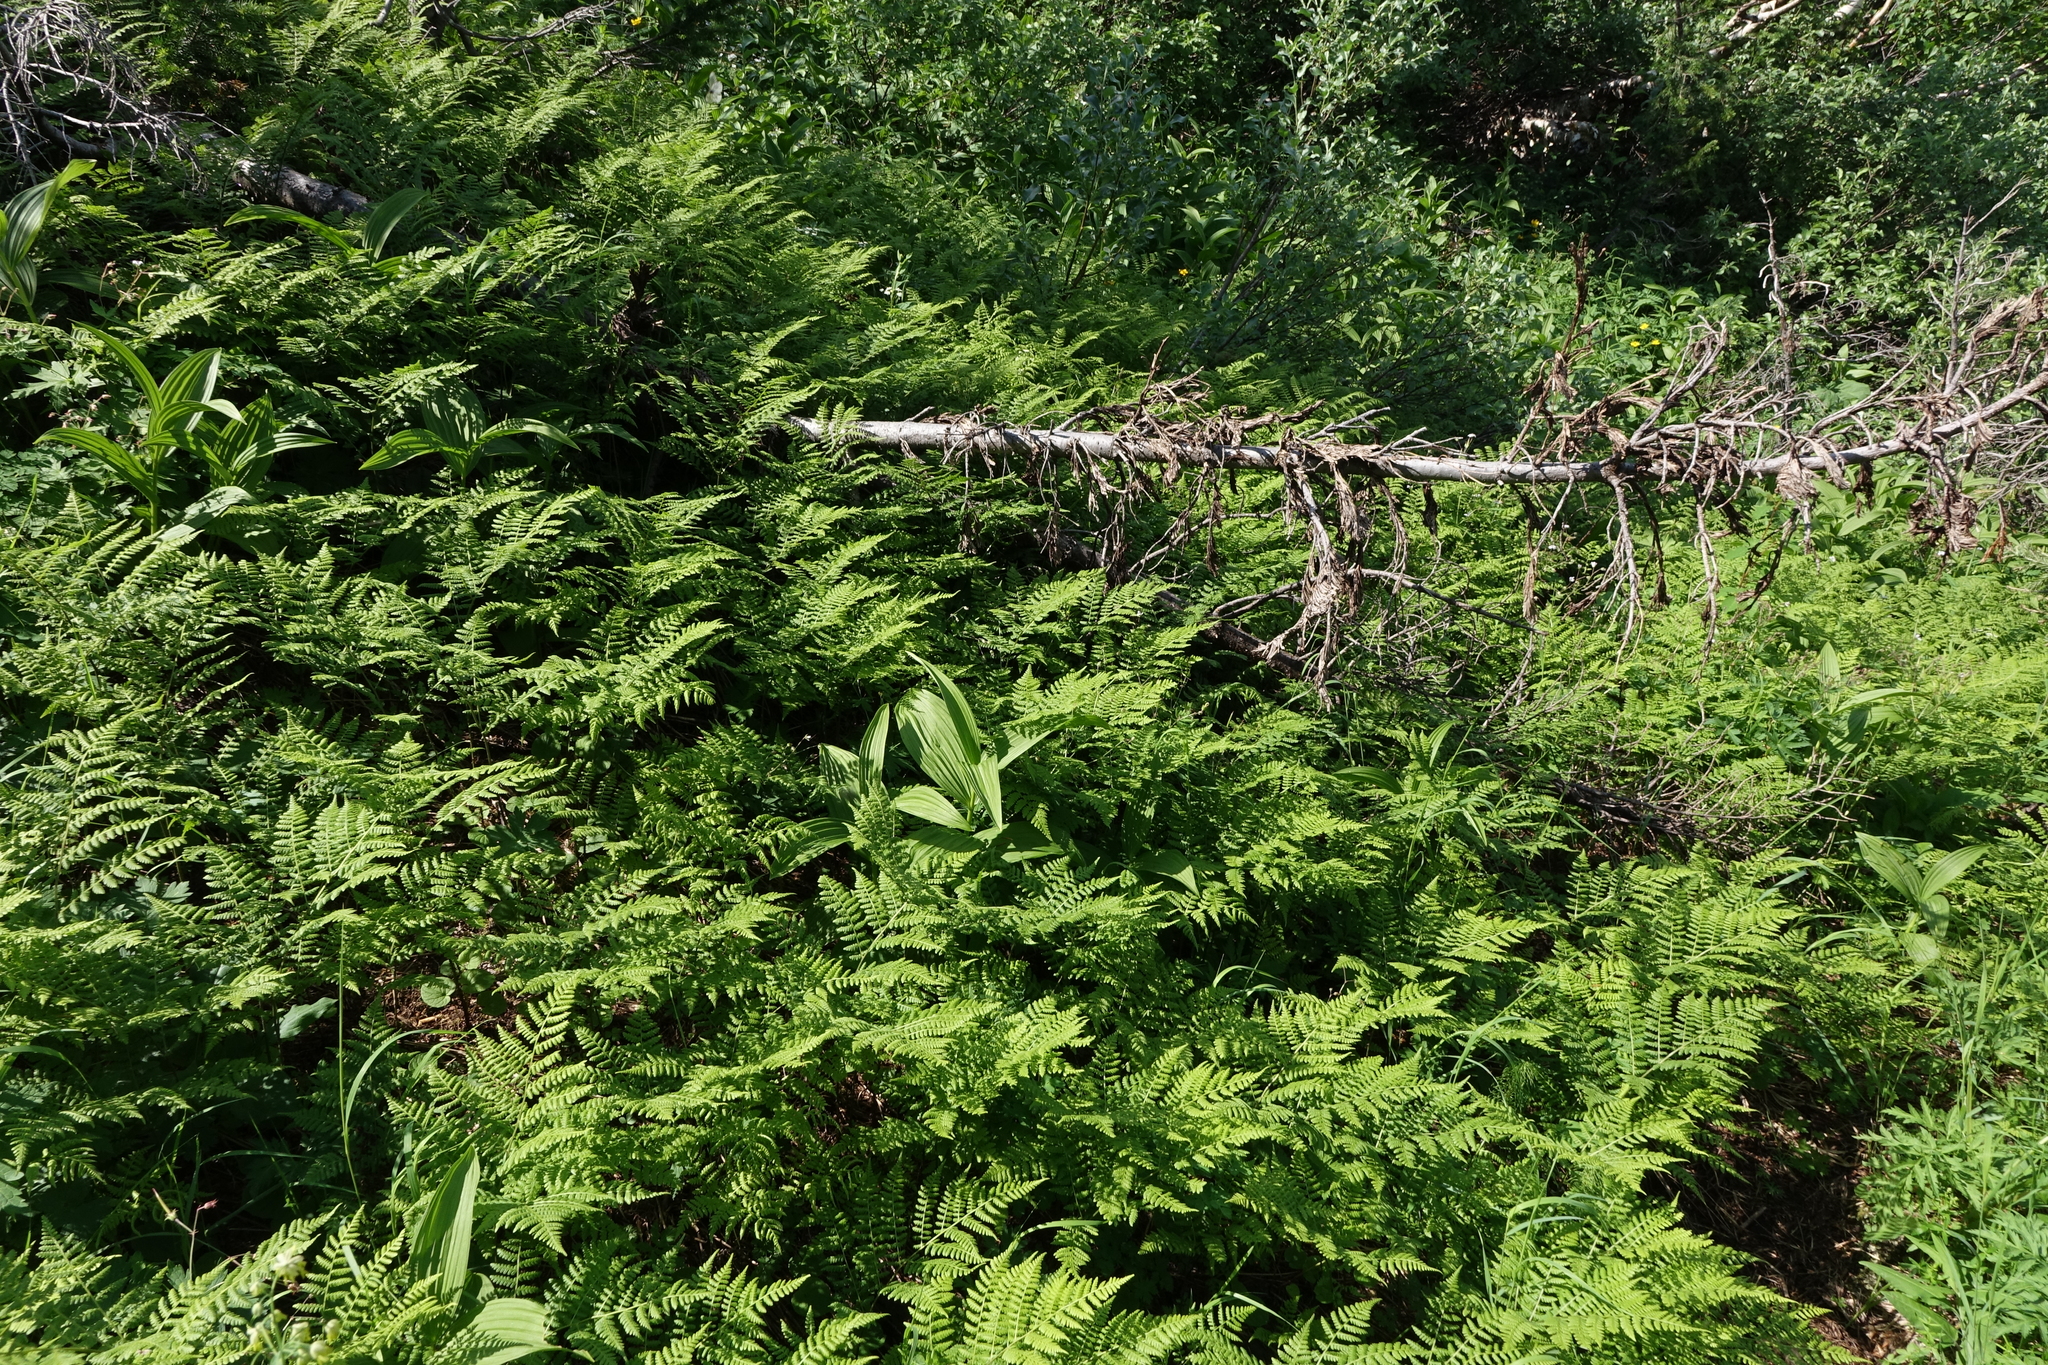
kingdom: Plantae
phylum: Tracheophyta
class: Polypodiopsida
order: Polypodiales
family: Athyriaceae
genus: Diplazium
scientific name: Diplazium sibiricum
